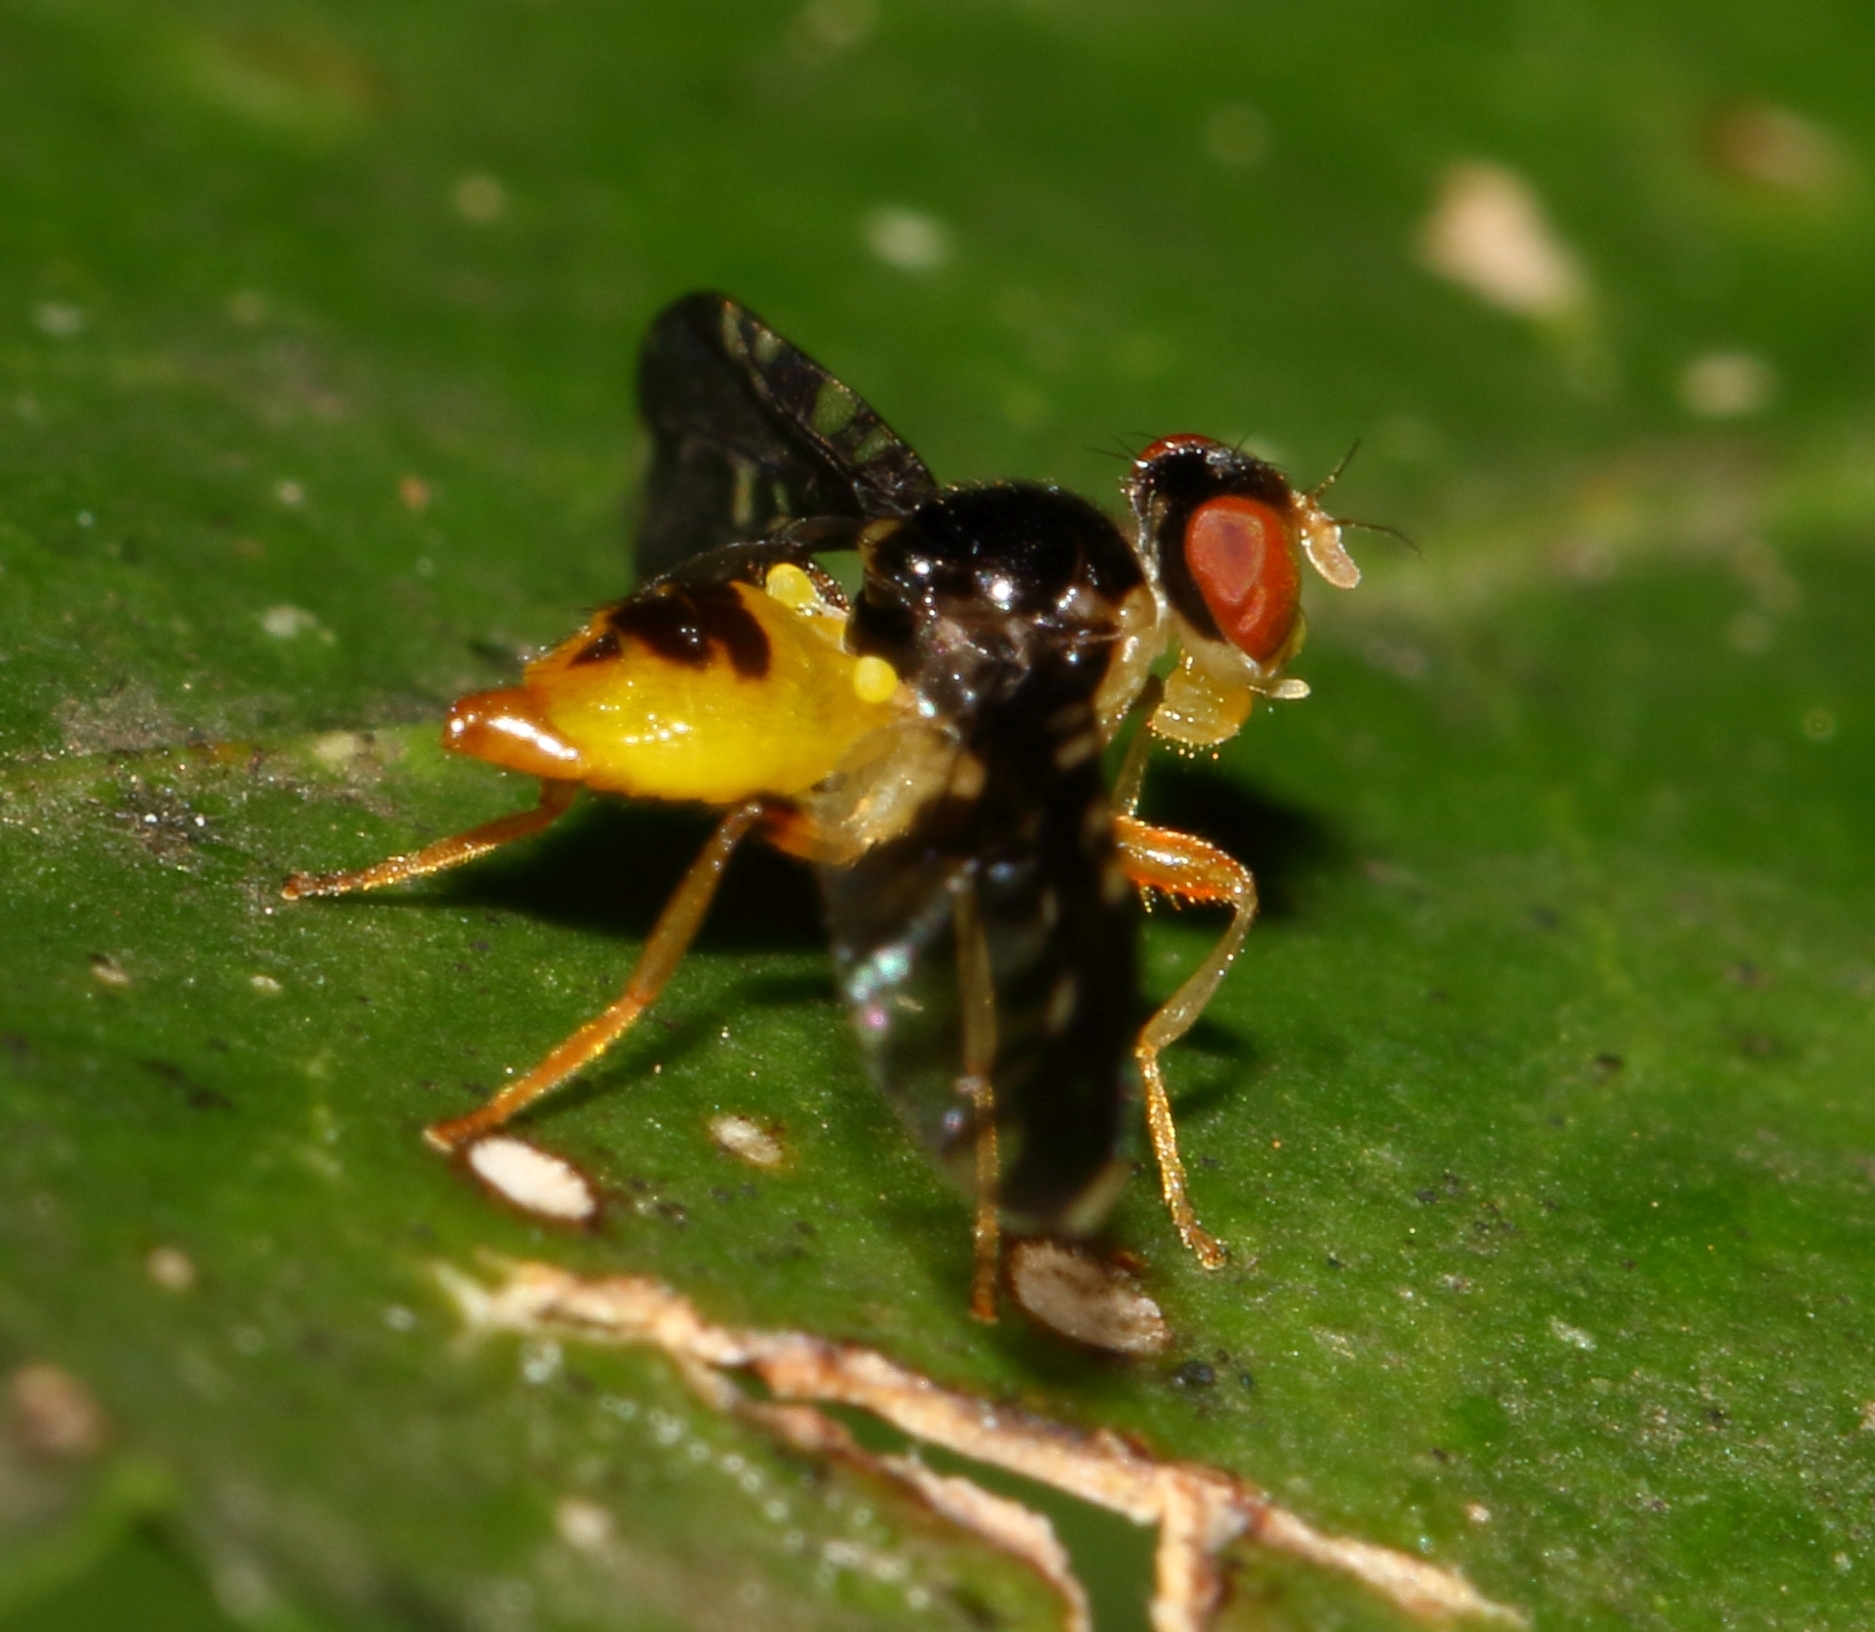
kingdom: Animalia
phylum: Arthropoda
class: Insecta
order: Diptera
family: Platystomatidae
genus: Furcamyia
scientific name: Furcamyia gladiatura
